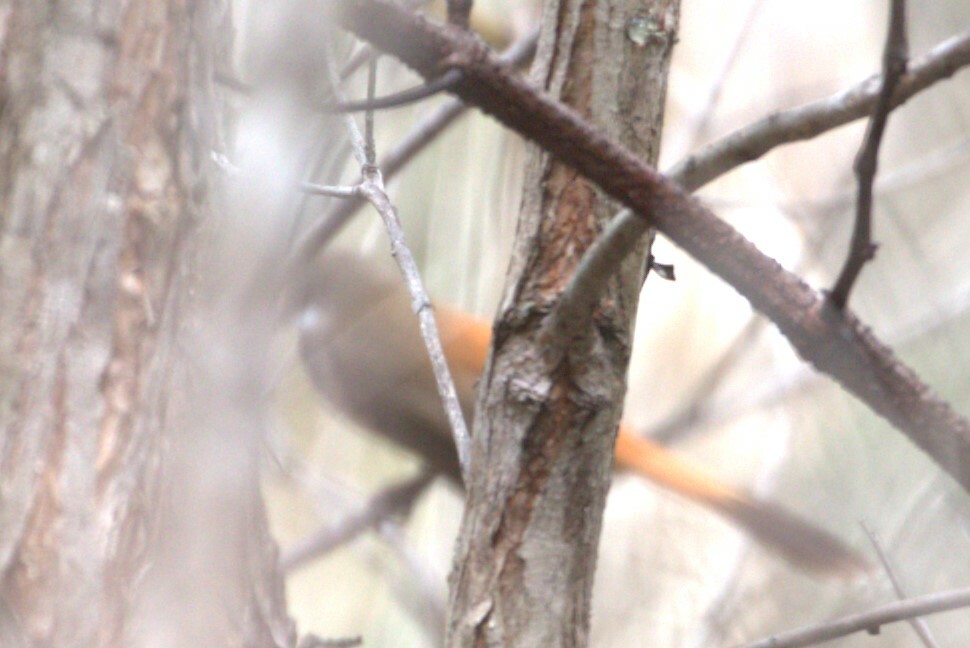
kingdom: Animalia
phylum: Chordata
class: Aves
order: Passeriformes
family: Rhipiduridae
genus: Rhipidura
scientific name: Rhipidura rufifrons
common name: Rufous fantail
